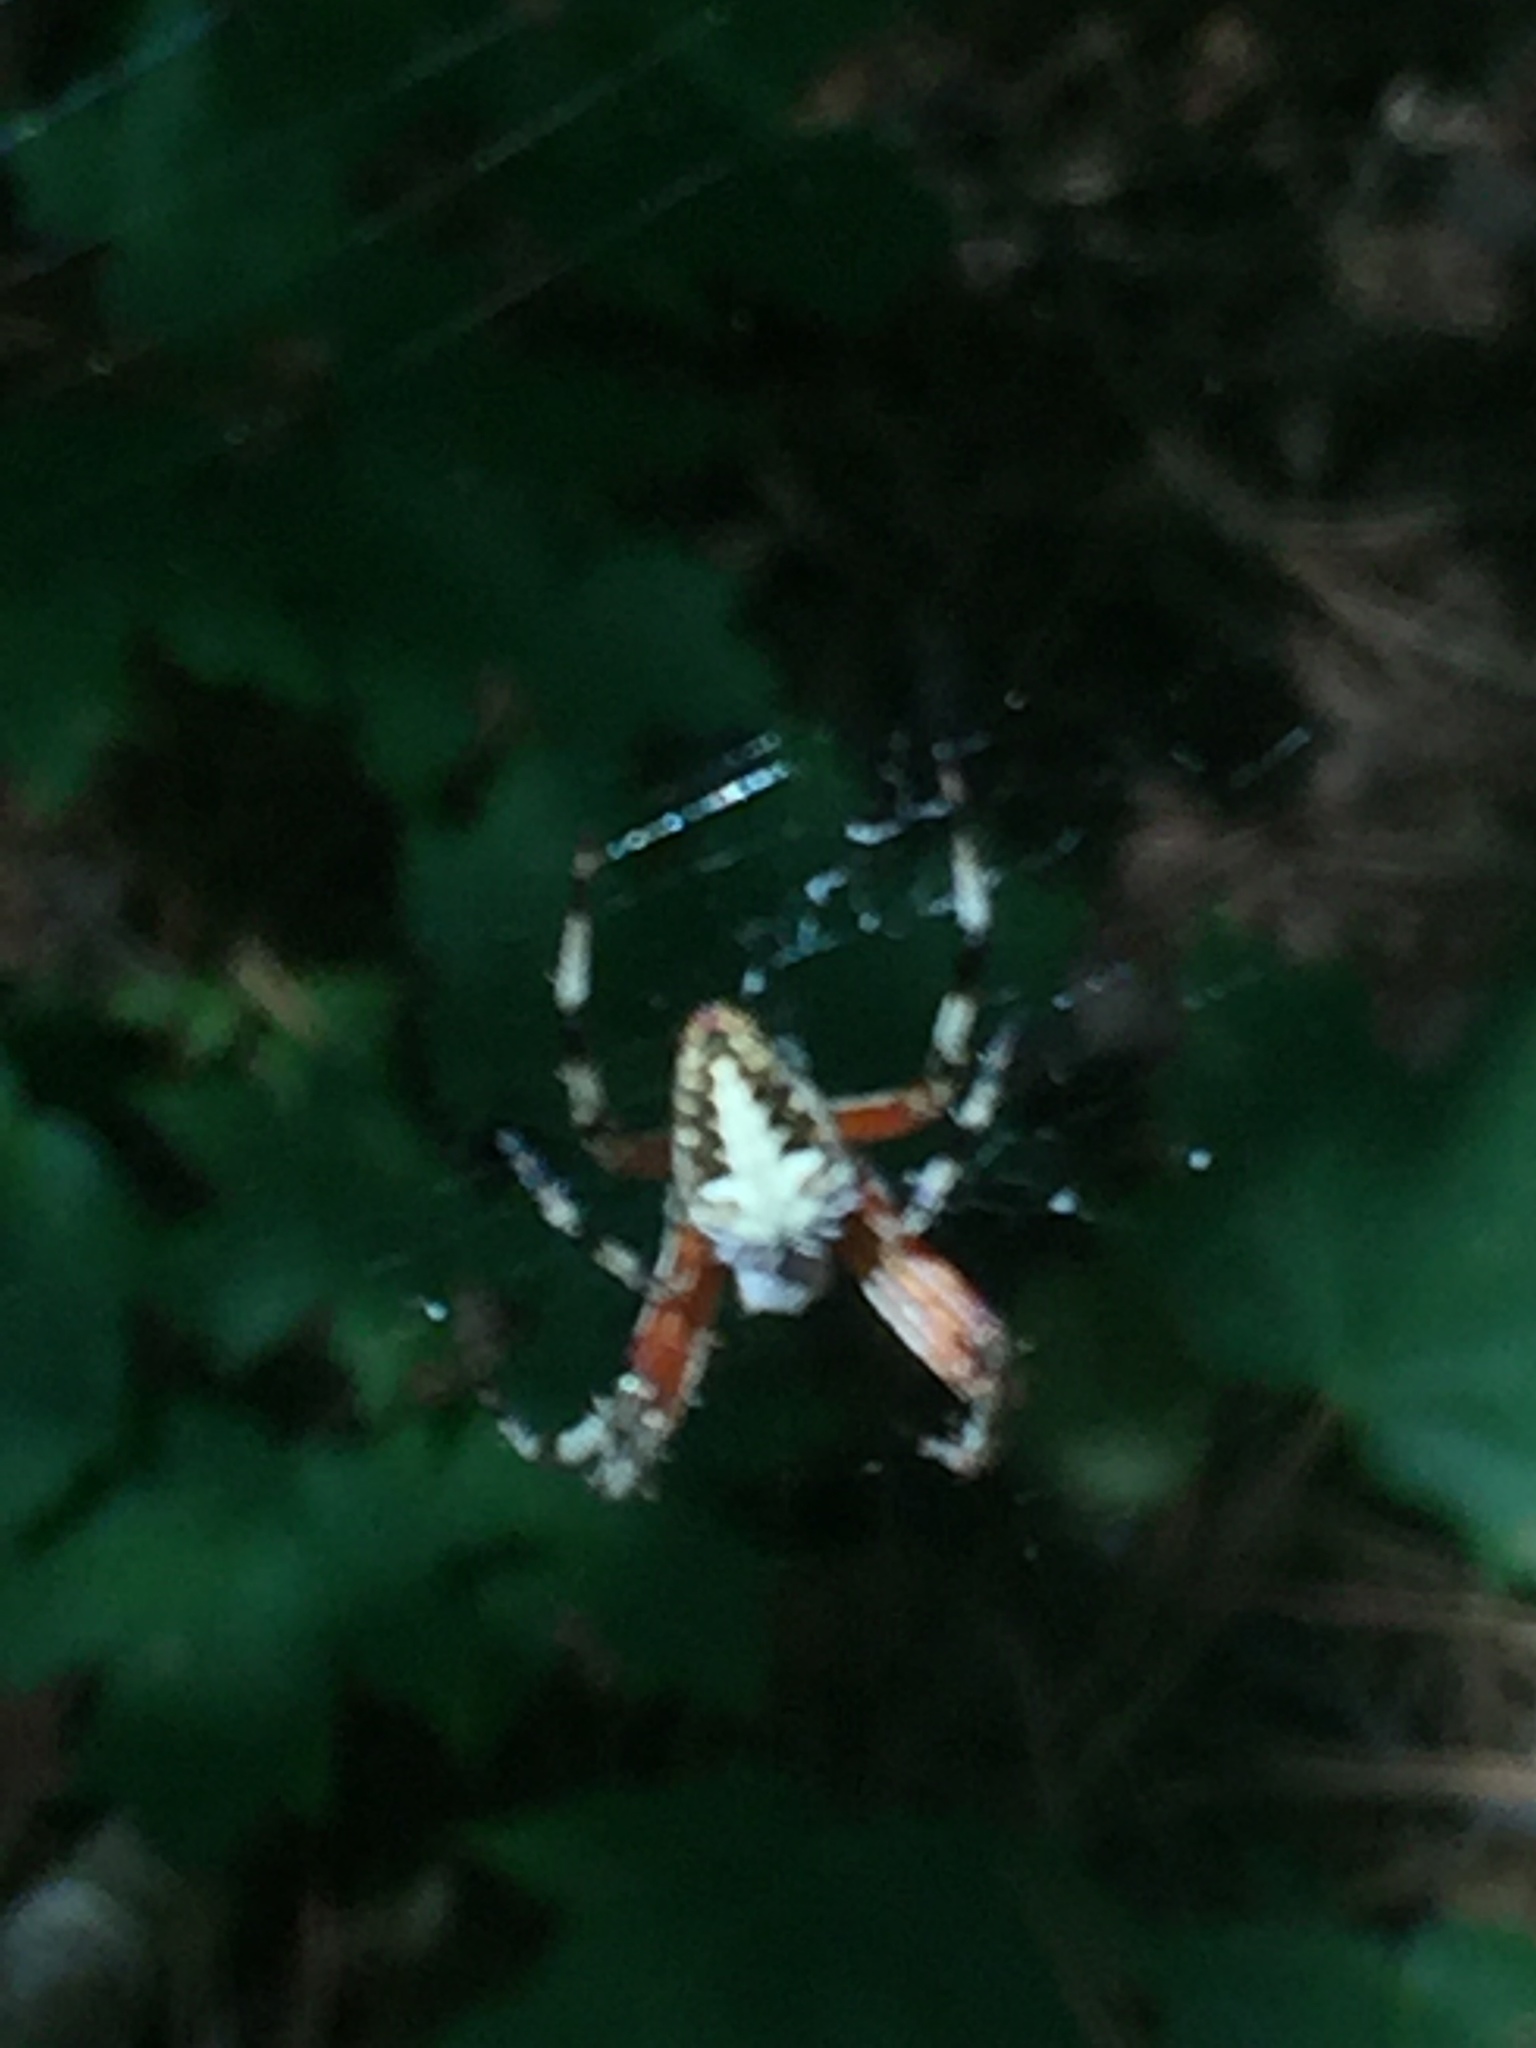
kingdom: Animalia
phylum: Arthropoda
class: Arachnida
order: Araneae
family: Araneidae
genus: Neoscona
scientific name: Neoscona domiciliorum
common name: Red-femured spotted orbweaver
